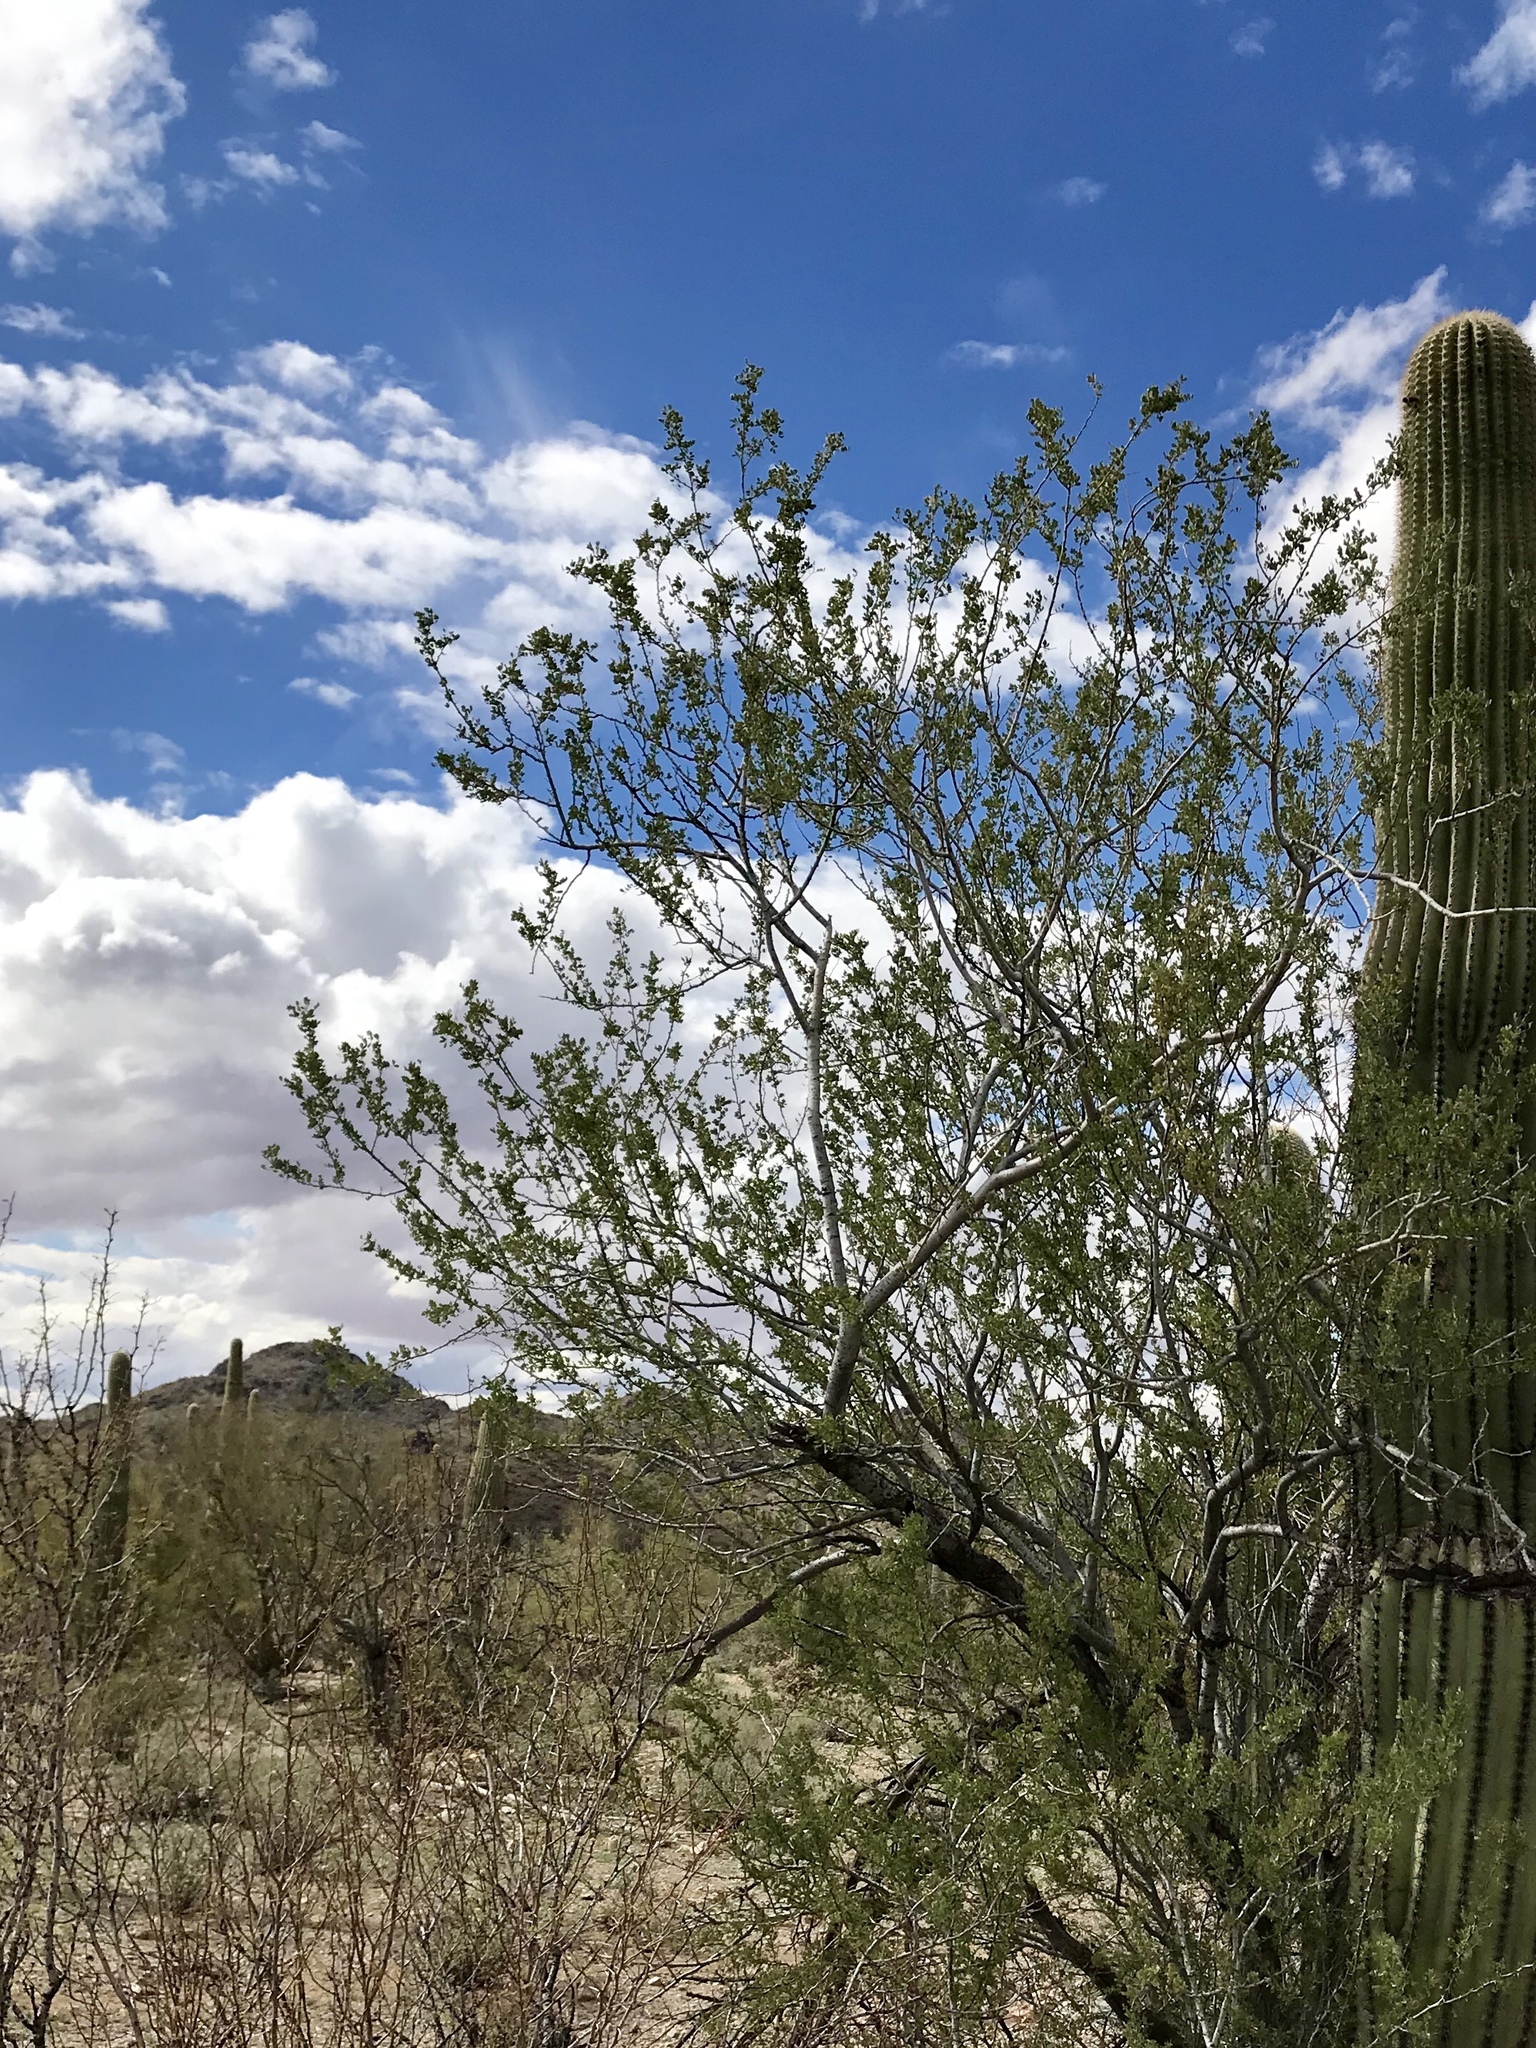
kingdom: Plantae
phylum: Tracheophyta
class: Magnoliopsida
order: Fabales
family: Fabaceae
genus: Olneya
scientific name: Olneya tesota
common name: Desert ironwood
